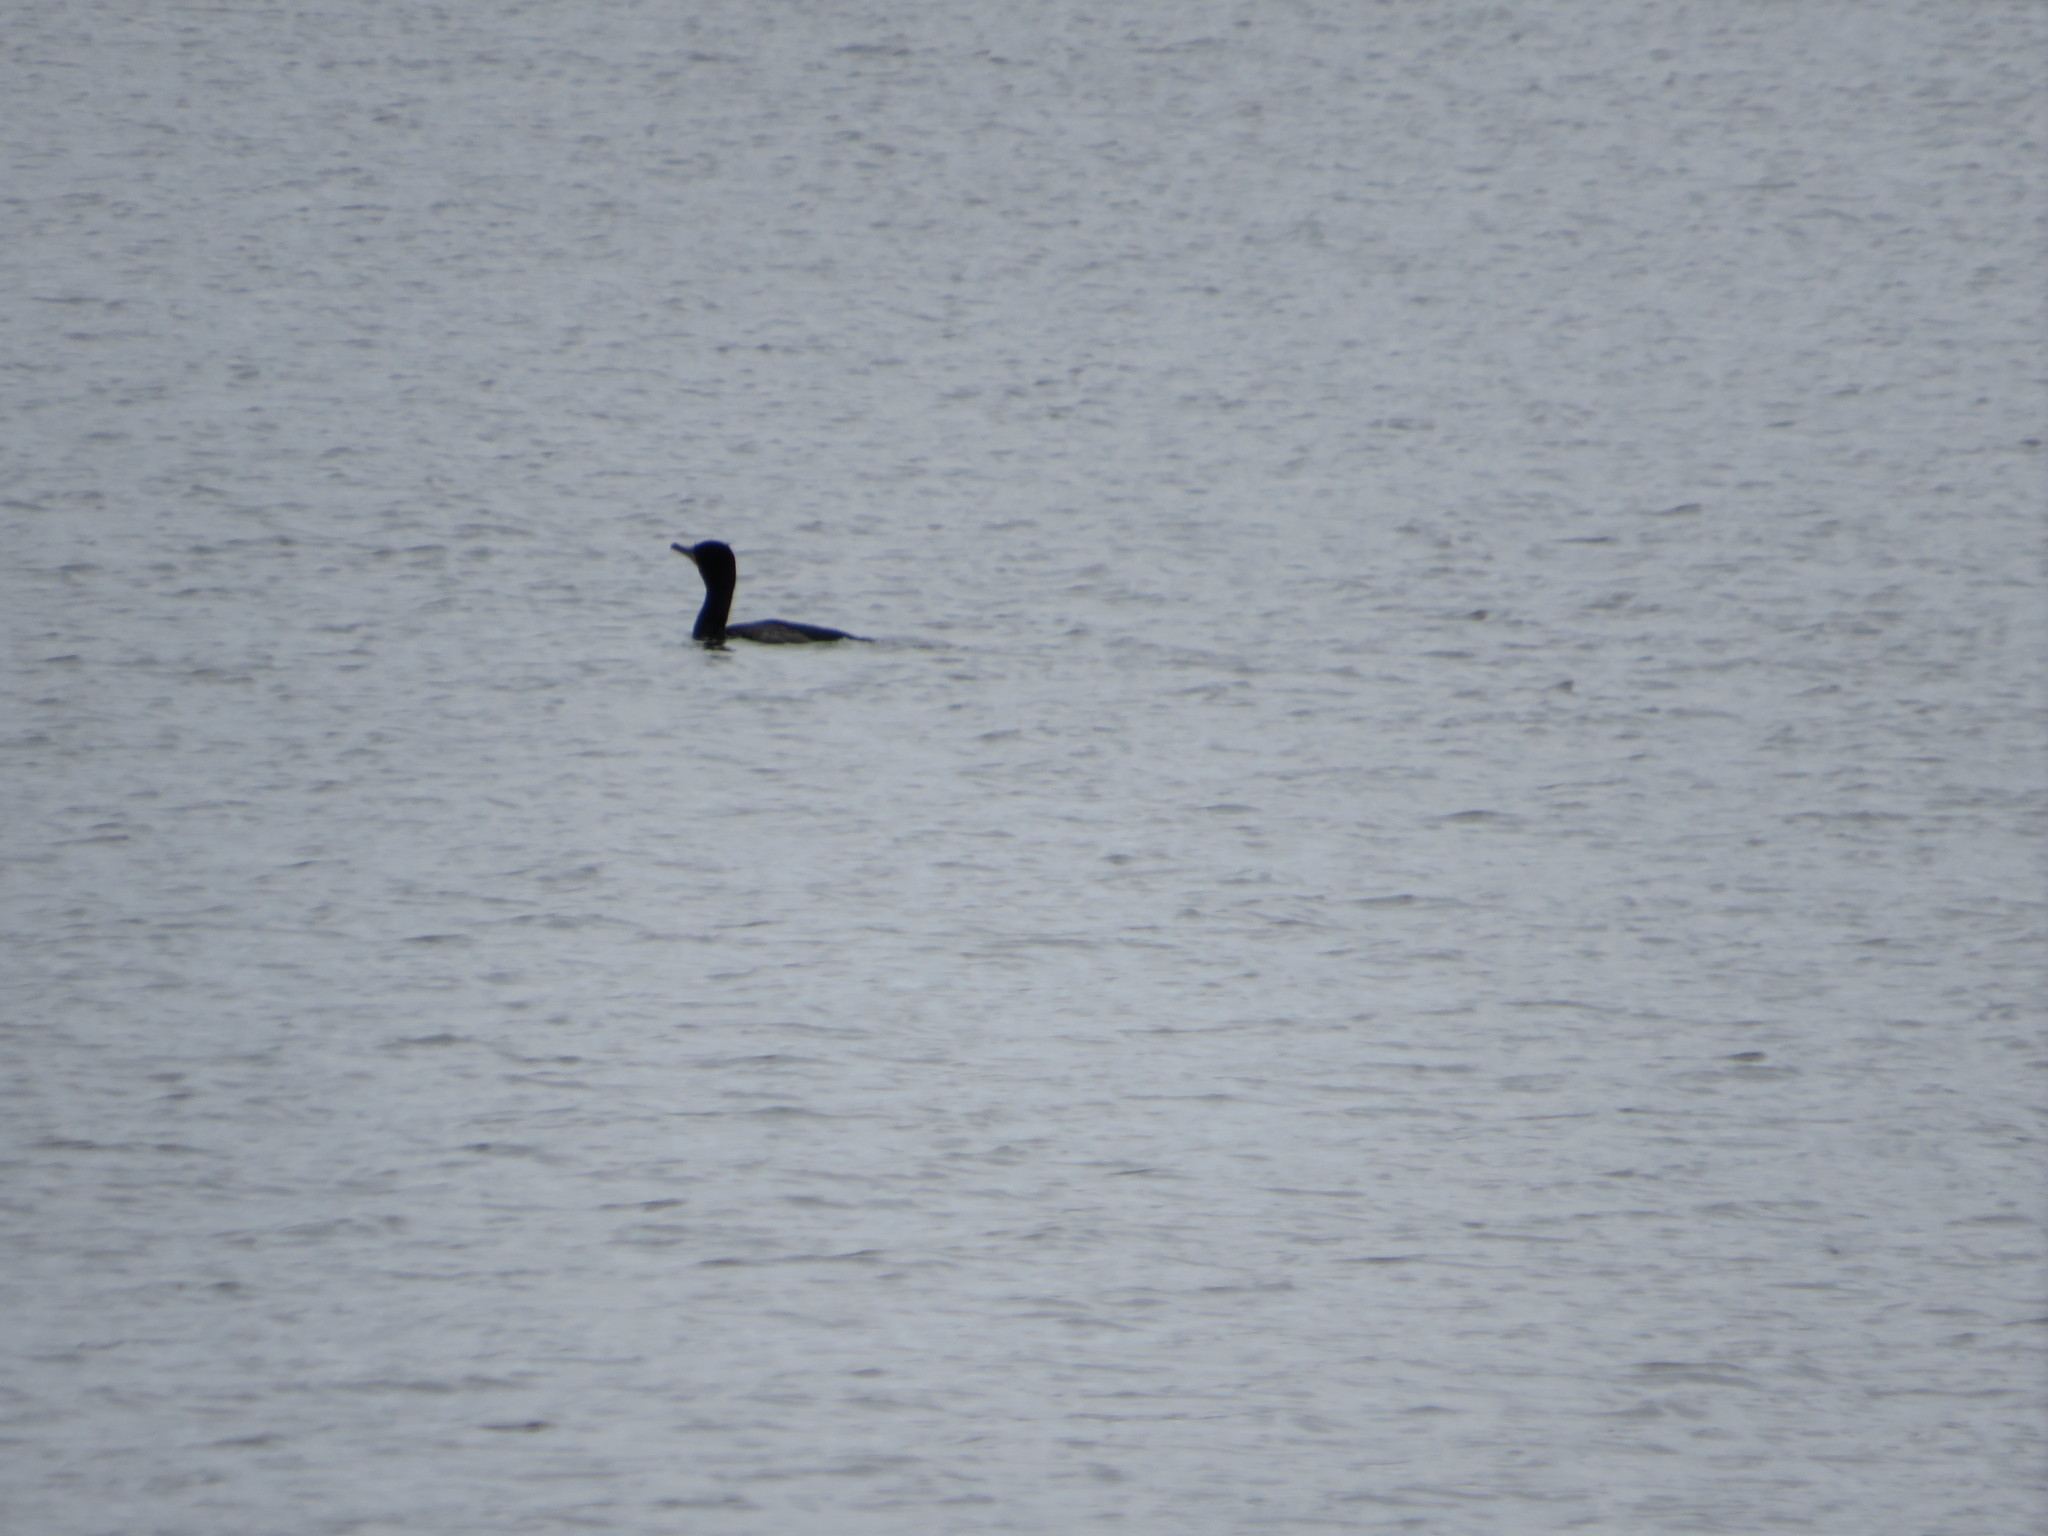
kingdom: Animalia
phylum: Chordata
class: Aves
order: Suliformes
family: Phalacrocoracidae
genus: Phalacrocorax
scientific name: Phalacrocorax auritus
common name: Double-crested cormorant
